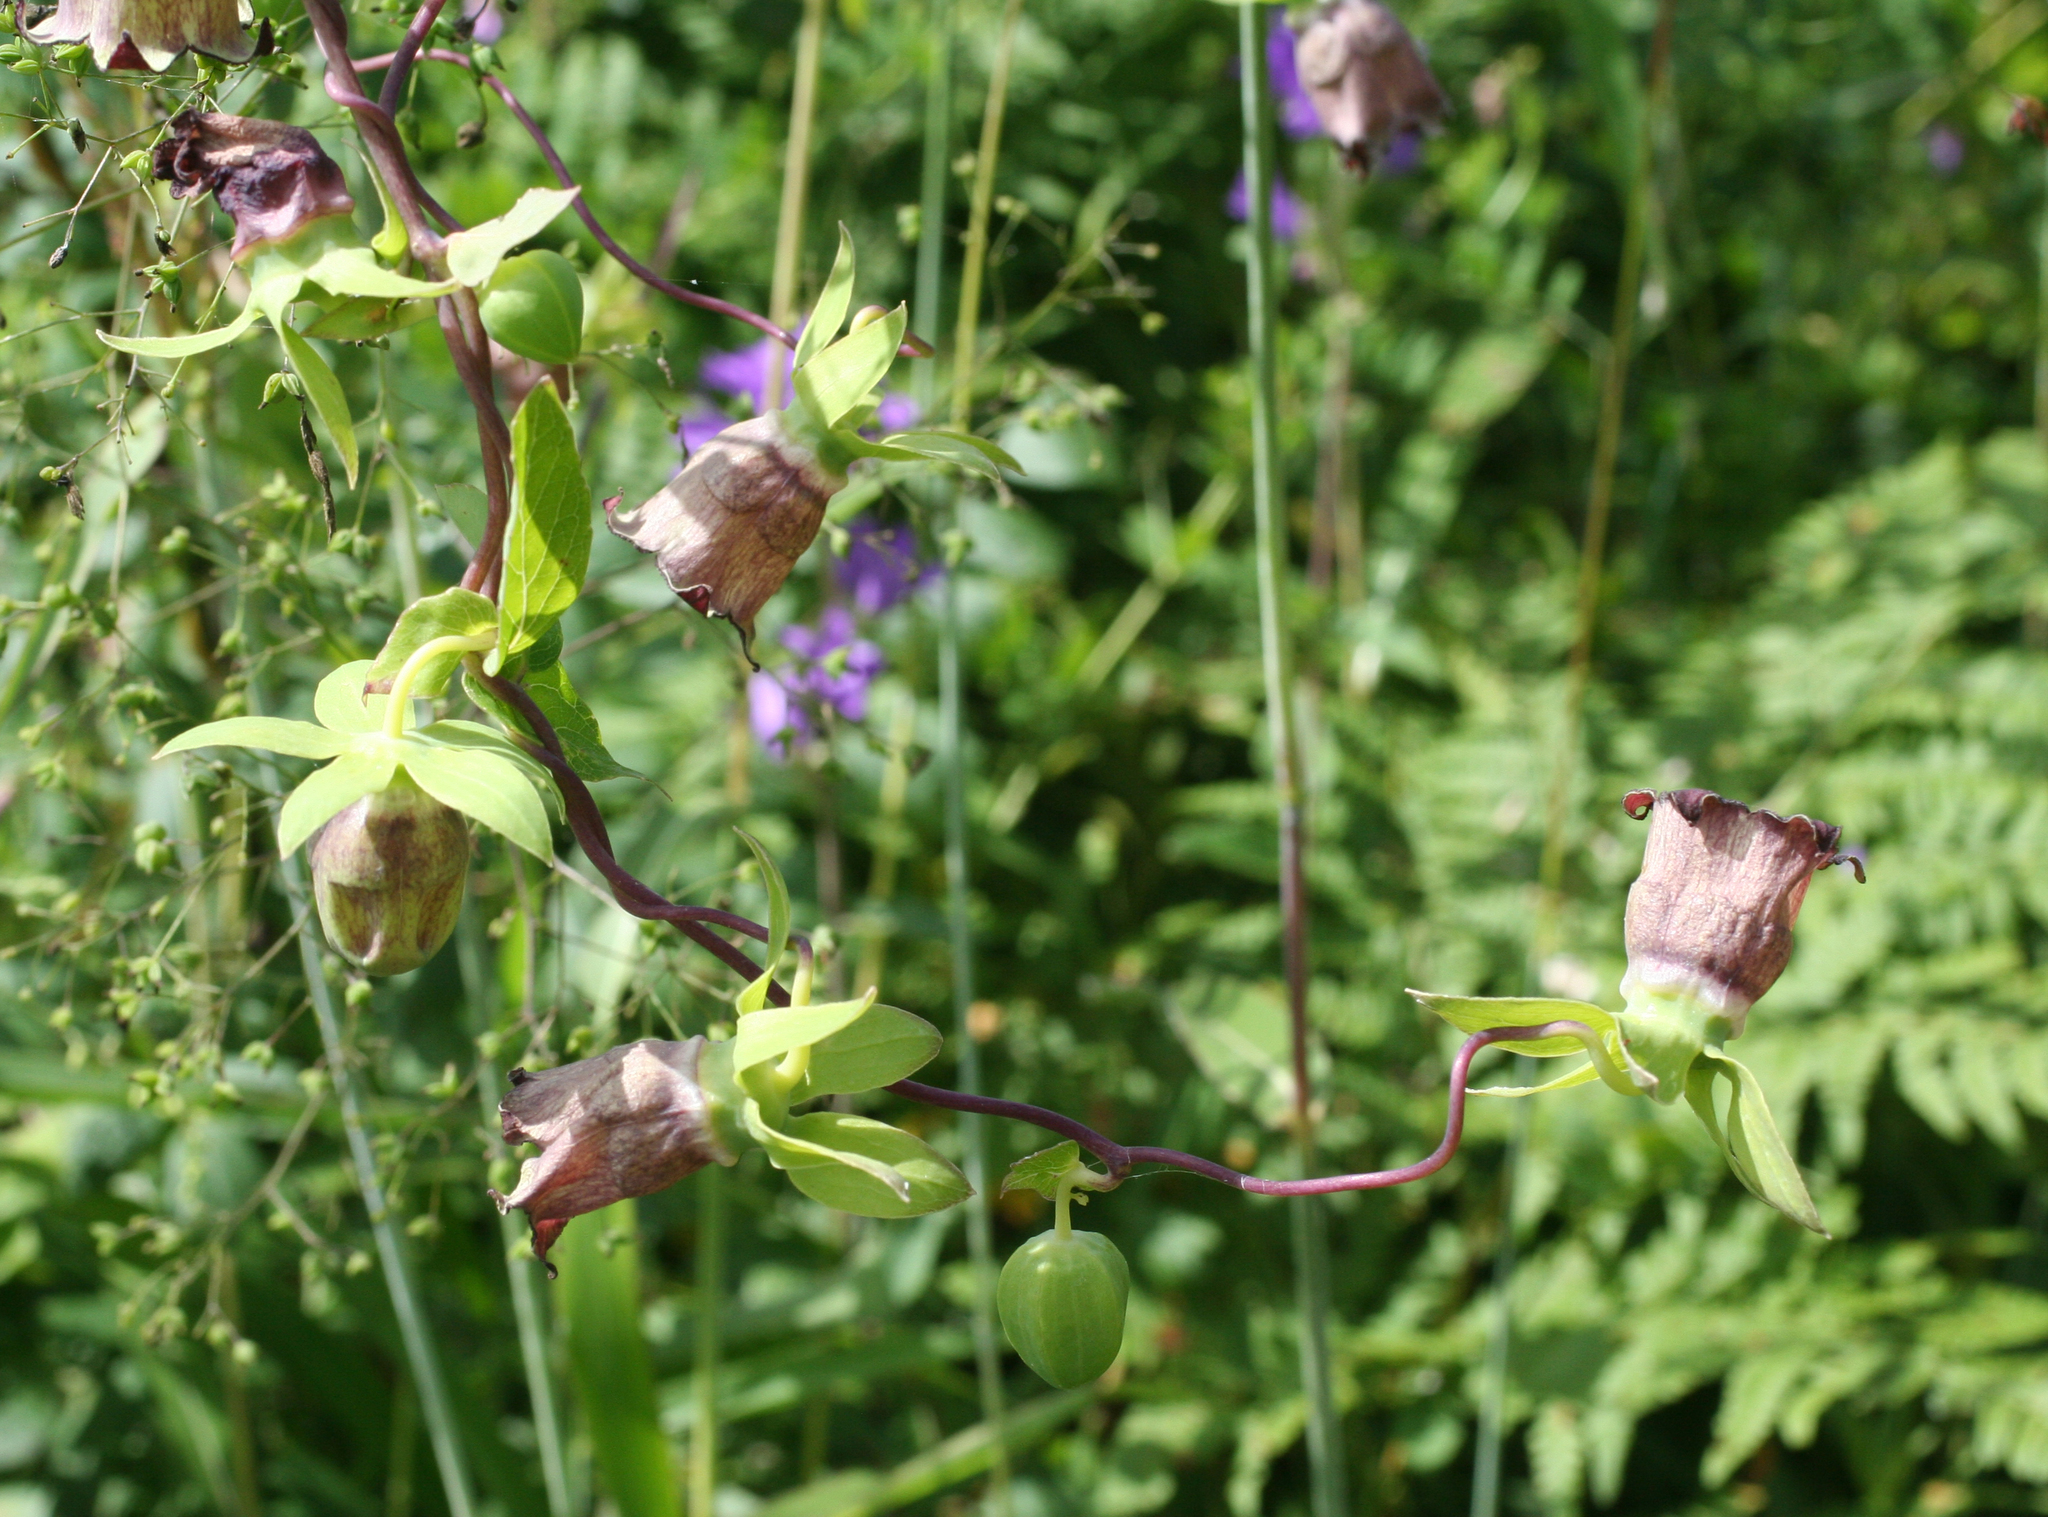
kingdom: Plantae
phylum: Tracheophyta
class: Magnoliopsida
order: Asterales
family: Campanulaceae
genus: Codonopsis
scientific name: Codonopsis ussuriensis
